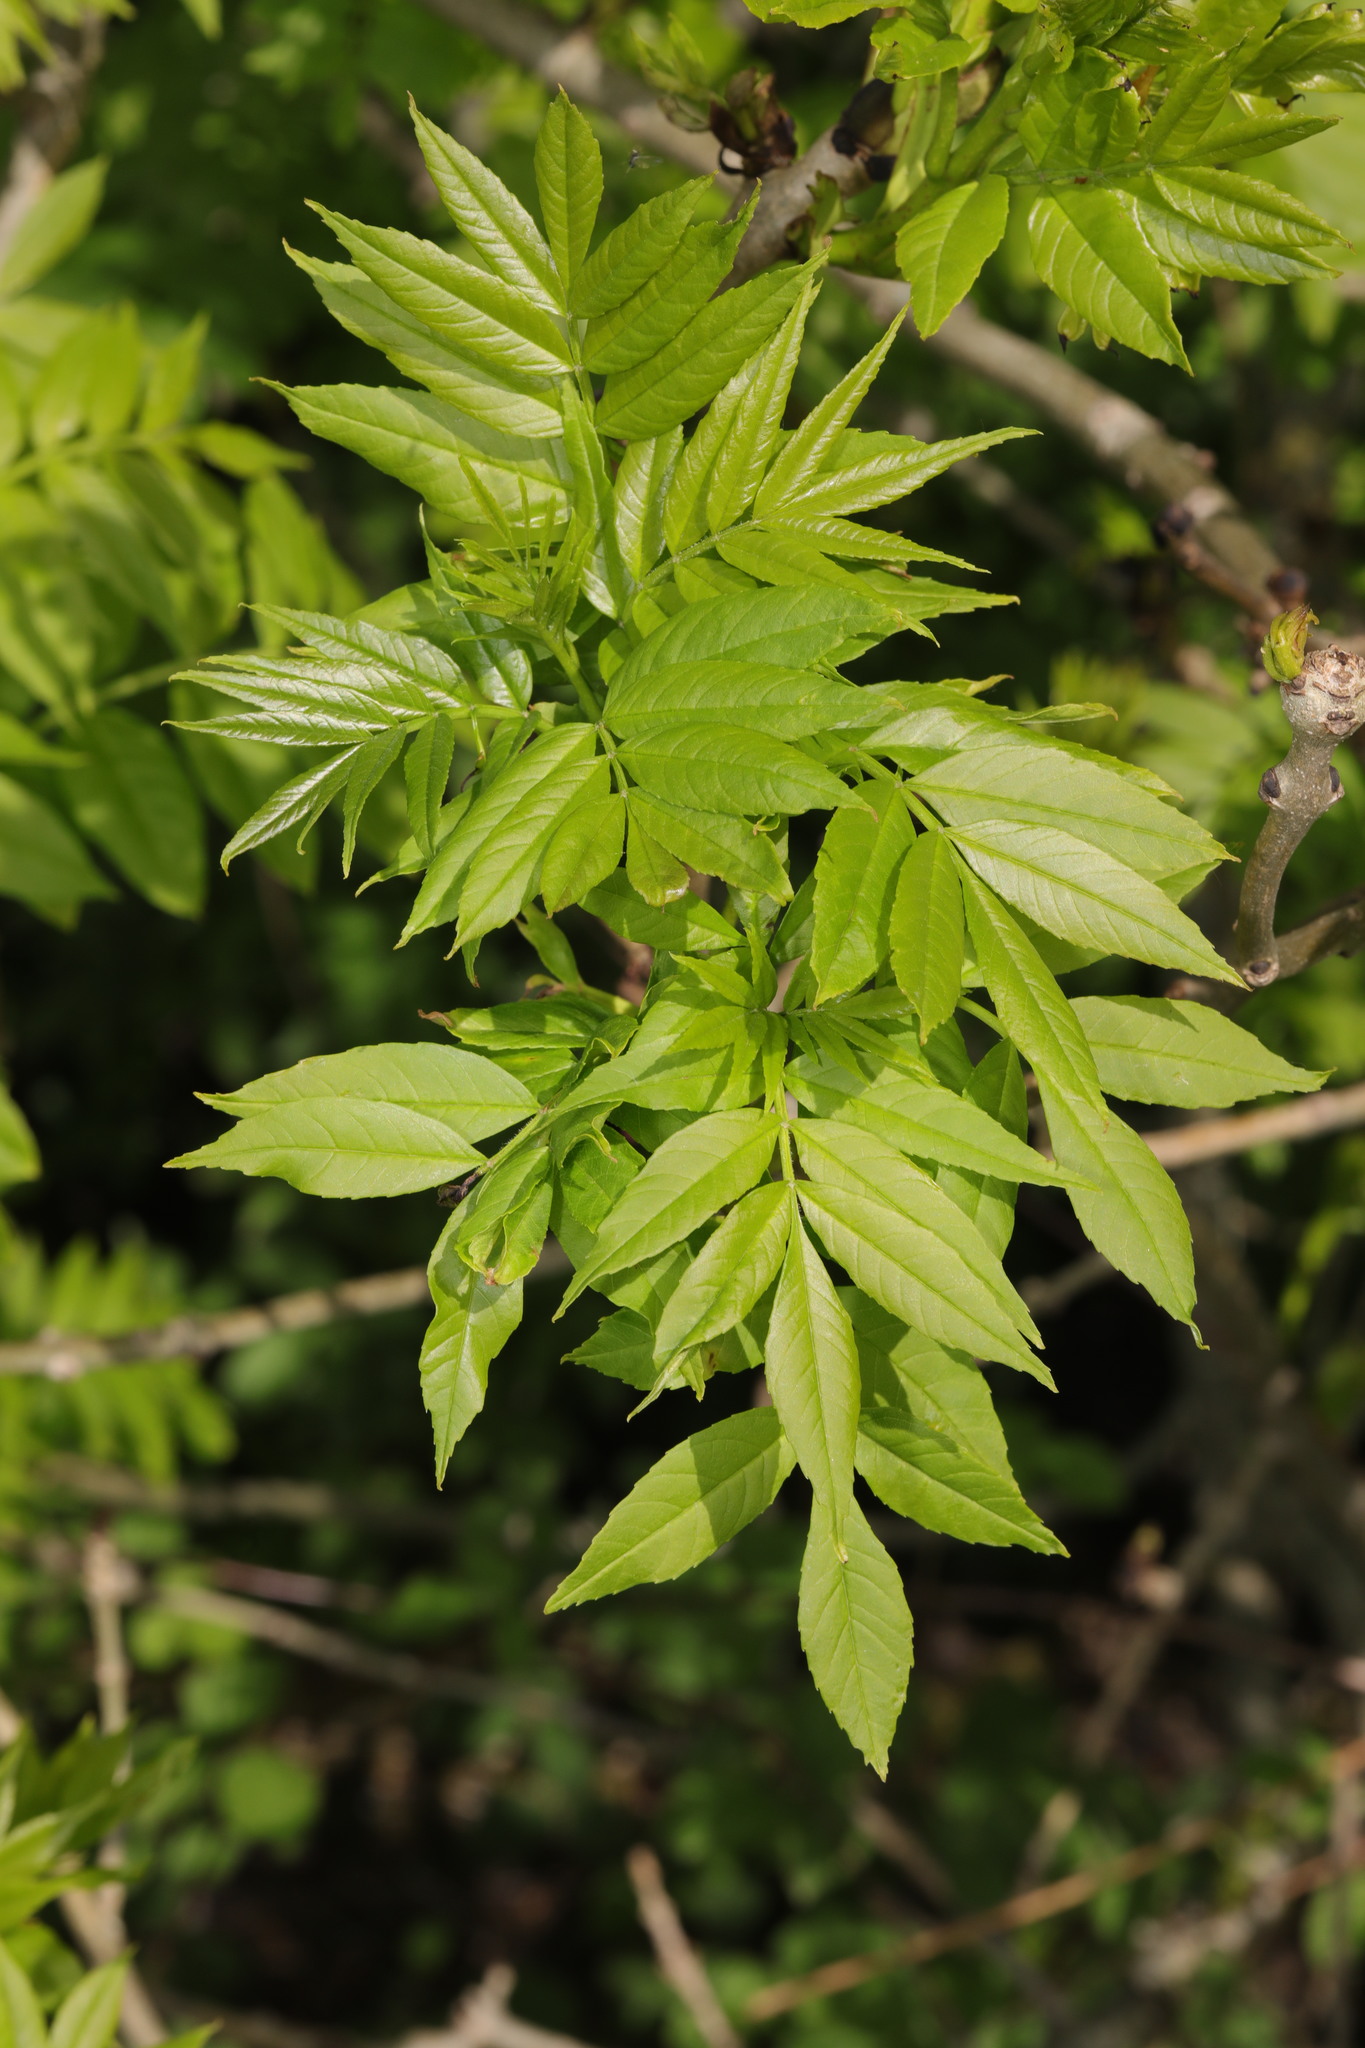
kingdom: Plantae
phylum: Tracheophyta
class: Magnoliopsida
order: Lamiales
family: Oleaceae
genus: Fraxinus
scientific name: Fraxinus excelsior
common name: European ash
